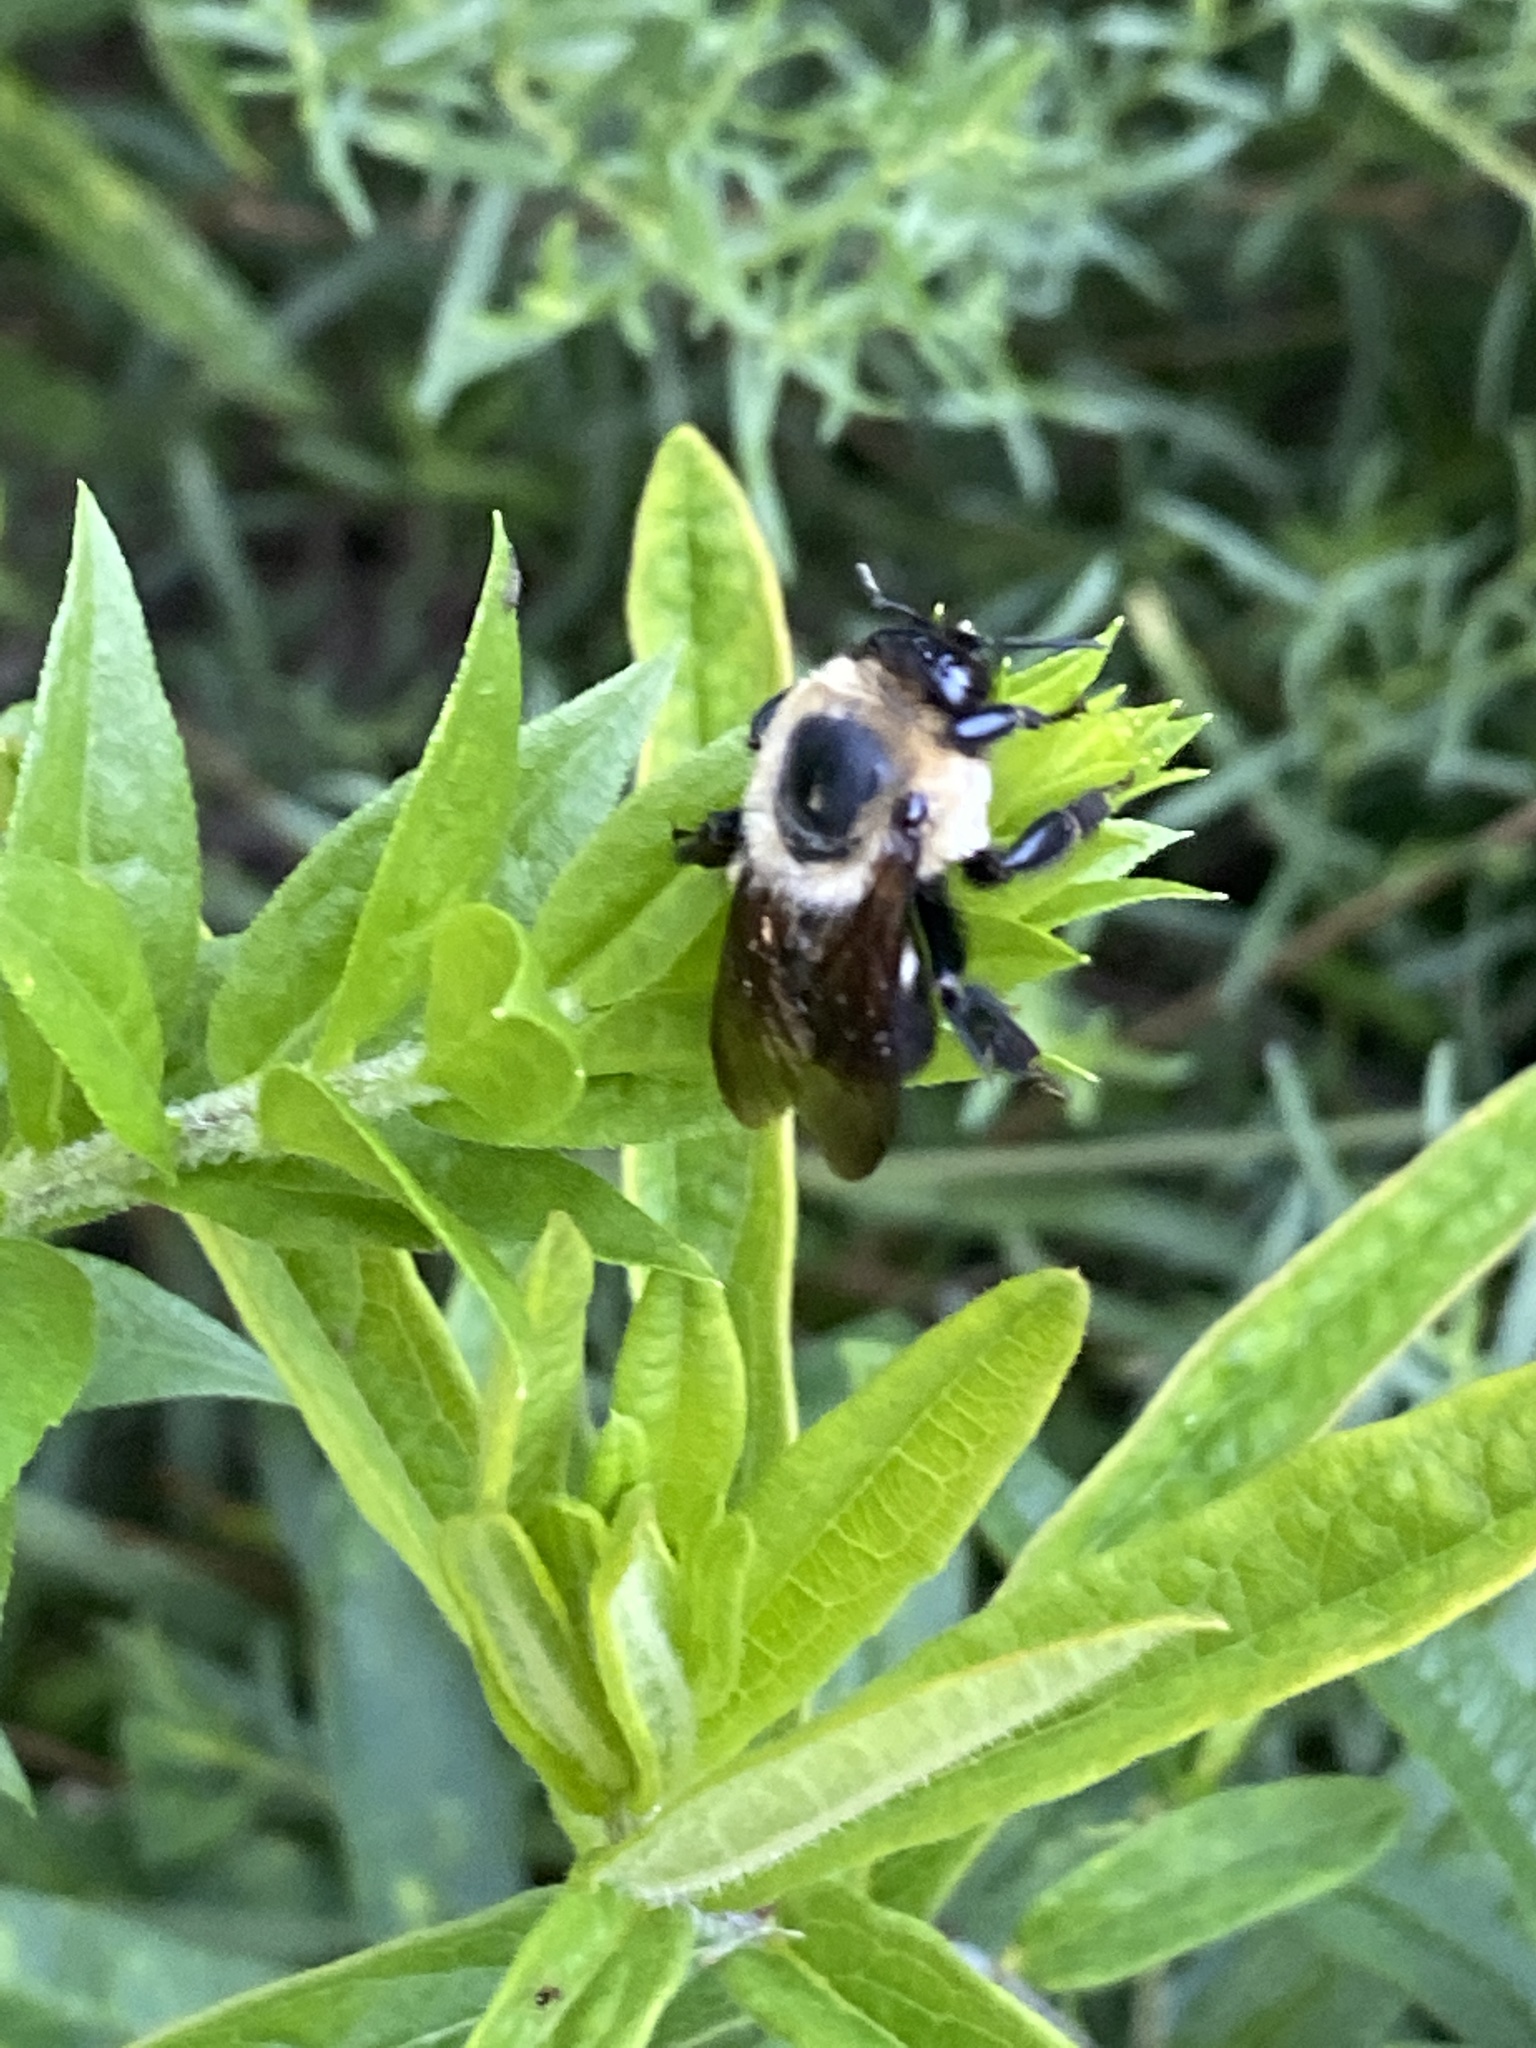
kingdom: Animalia
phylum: Arthropoda
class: Insecta
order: Hymenoptera
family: Apidae
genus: Bombus
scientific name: Bombus griseocollis
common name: Brown-belted bumble bee
